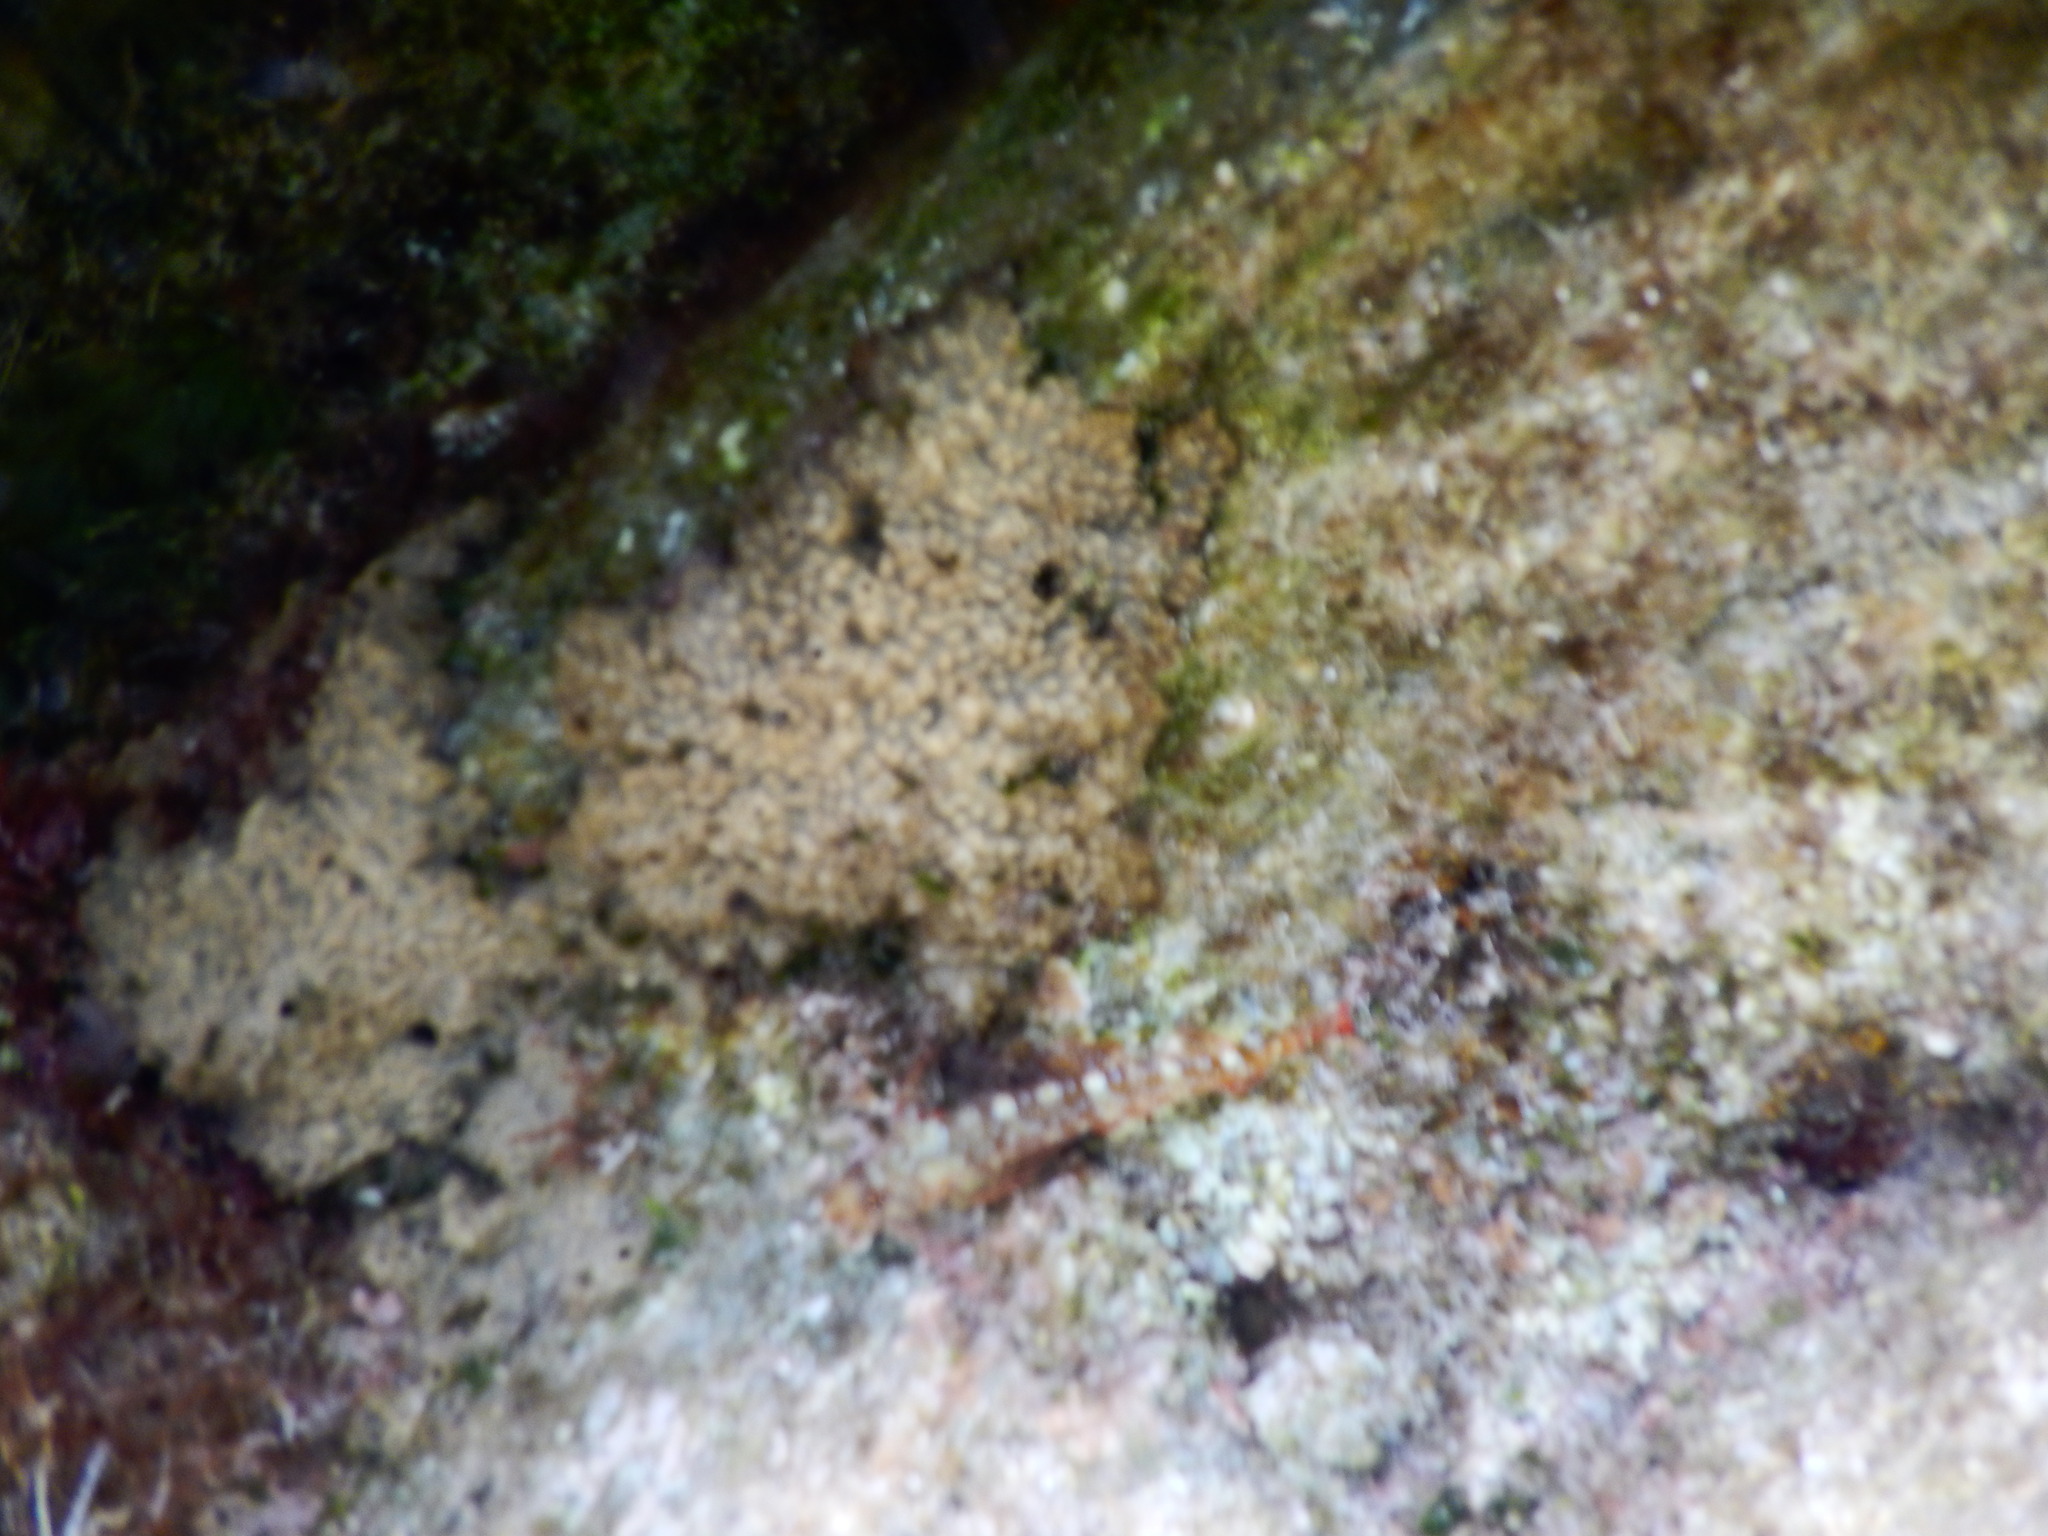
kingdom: Animalia
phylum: Chordata
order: Perciformes
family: Tripterygiidae
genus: Tripterygion
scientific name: Tripterygion tripteronotum
